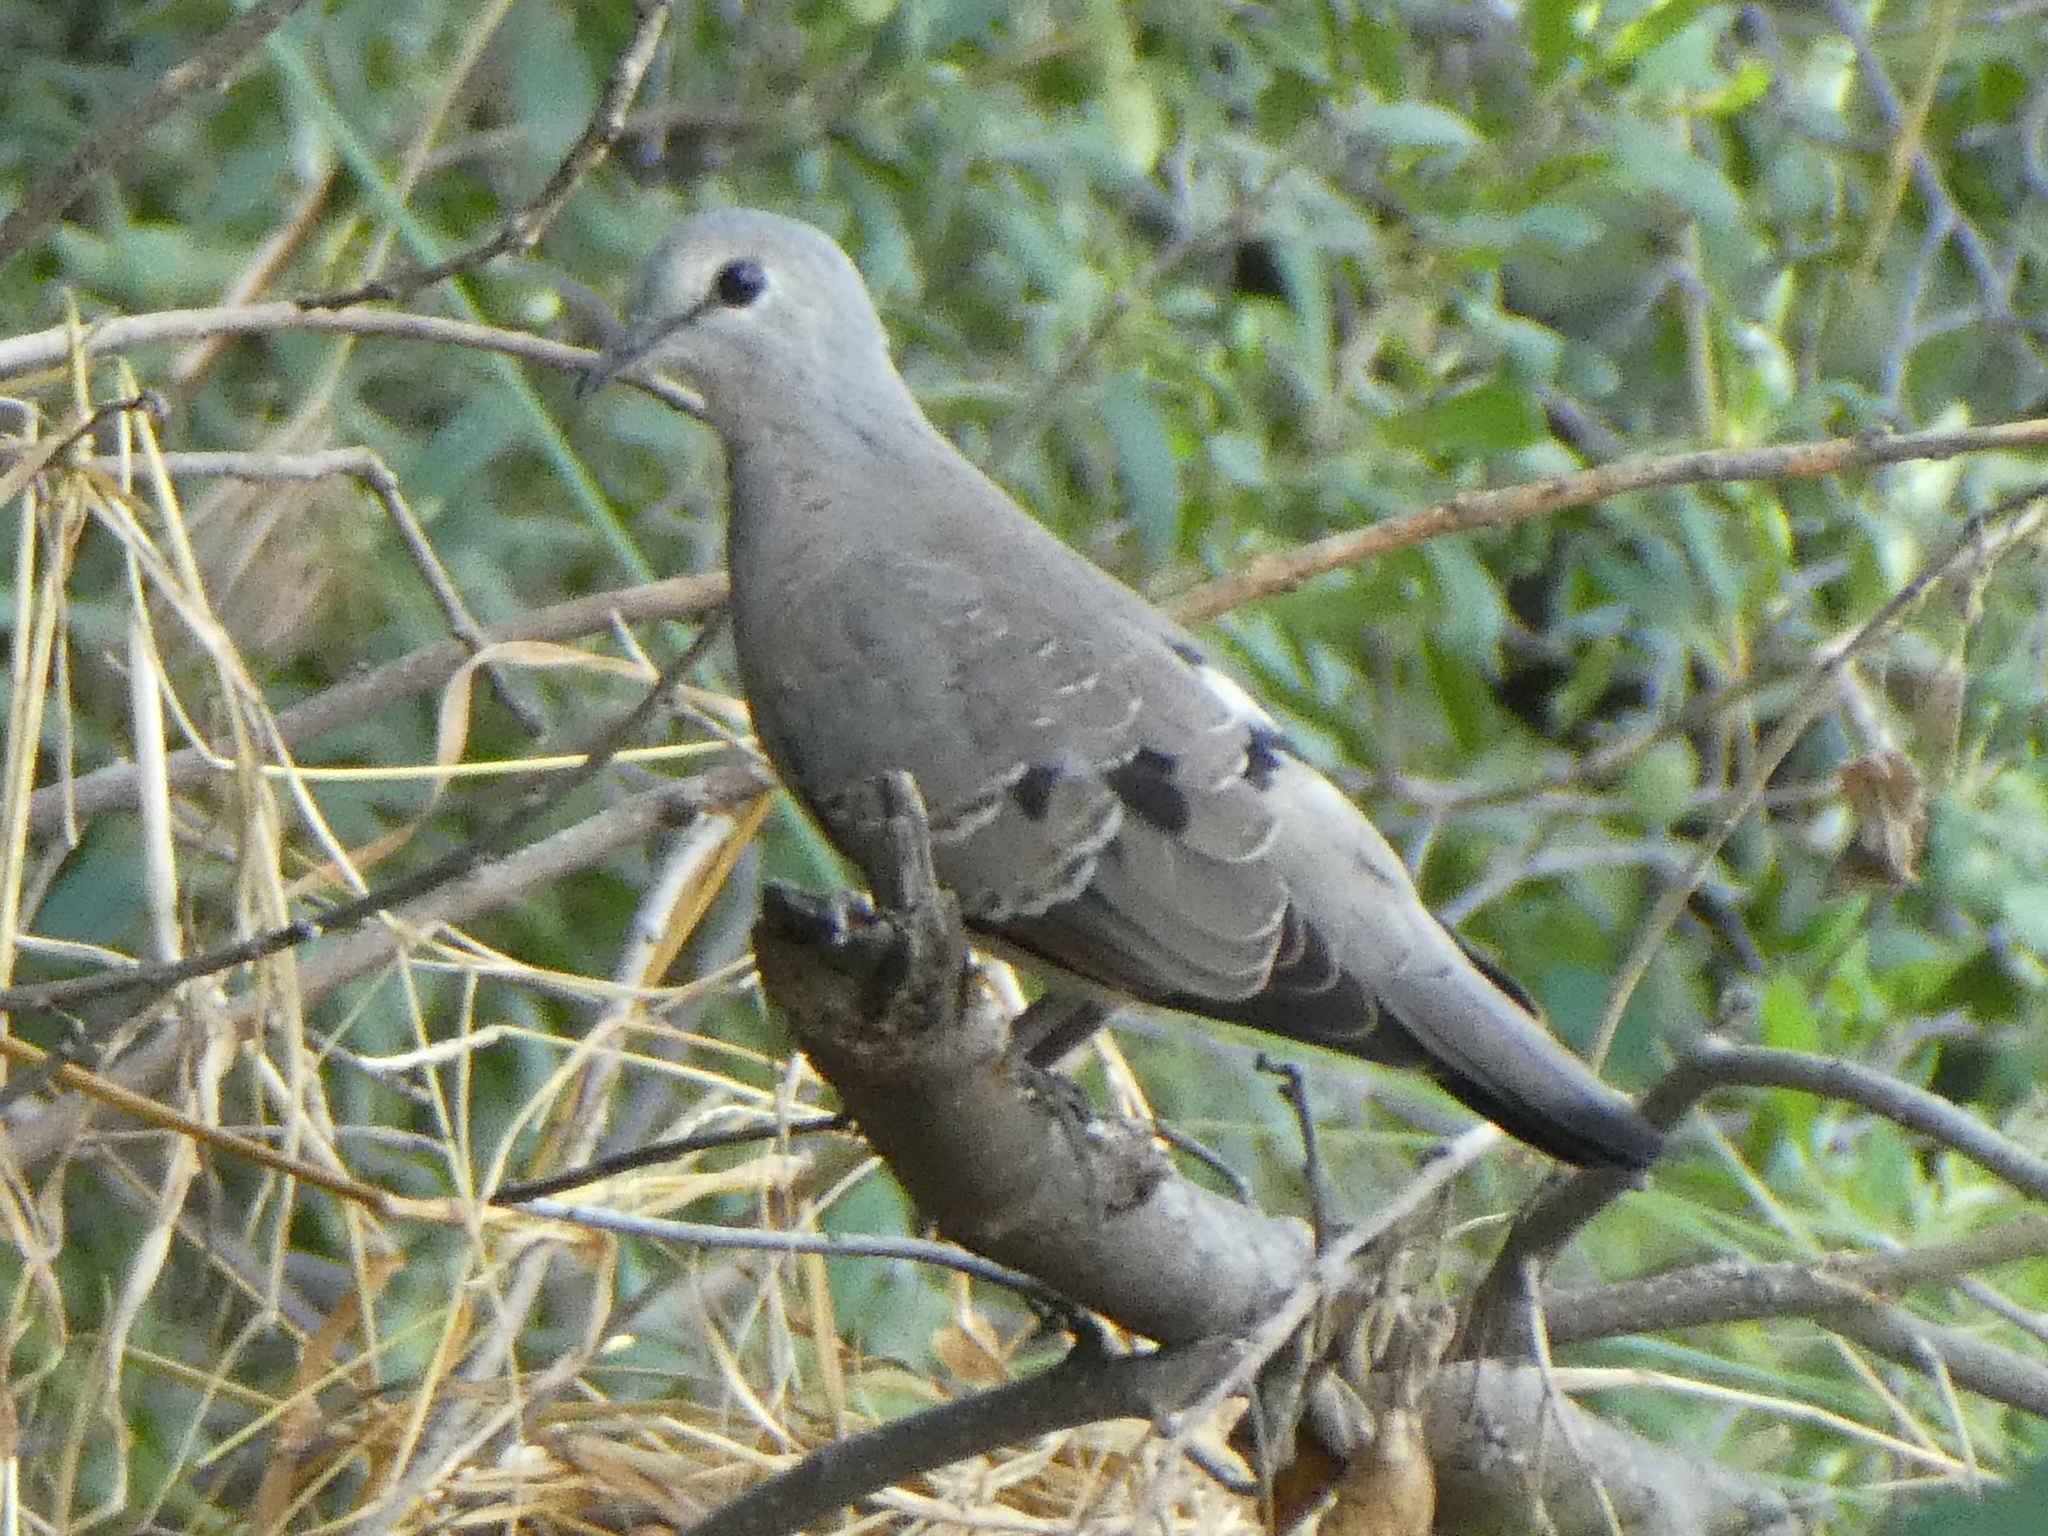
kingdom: Animalia
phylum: Chordata
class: Aves
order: Columbiformes
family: Columbidae
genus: Turtur
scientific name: Turtur chalcospilos
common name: Emerald-spotted wood dove
